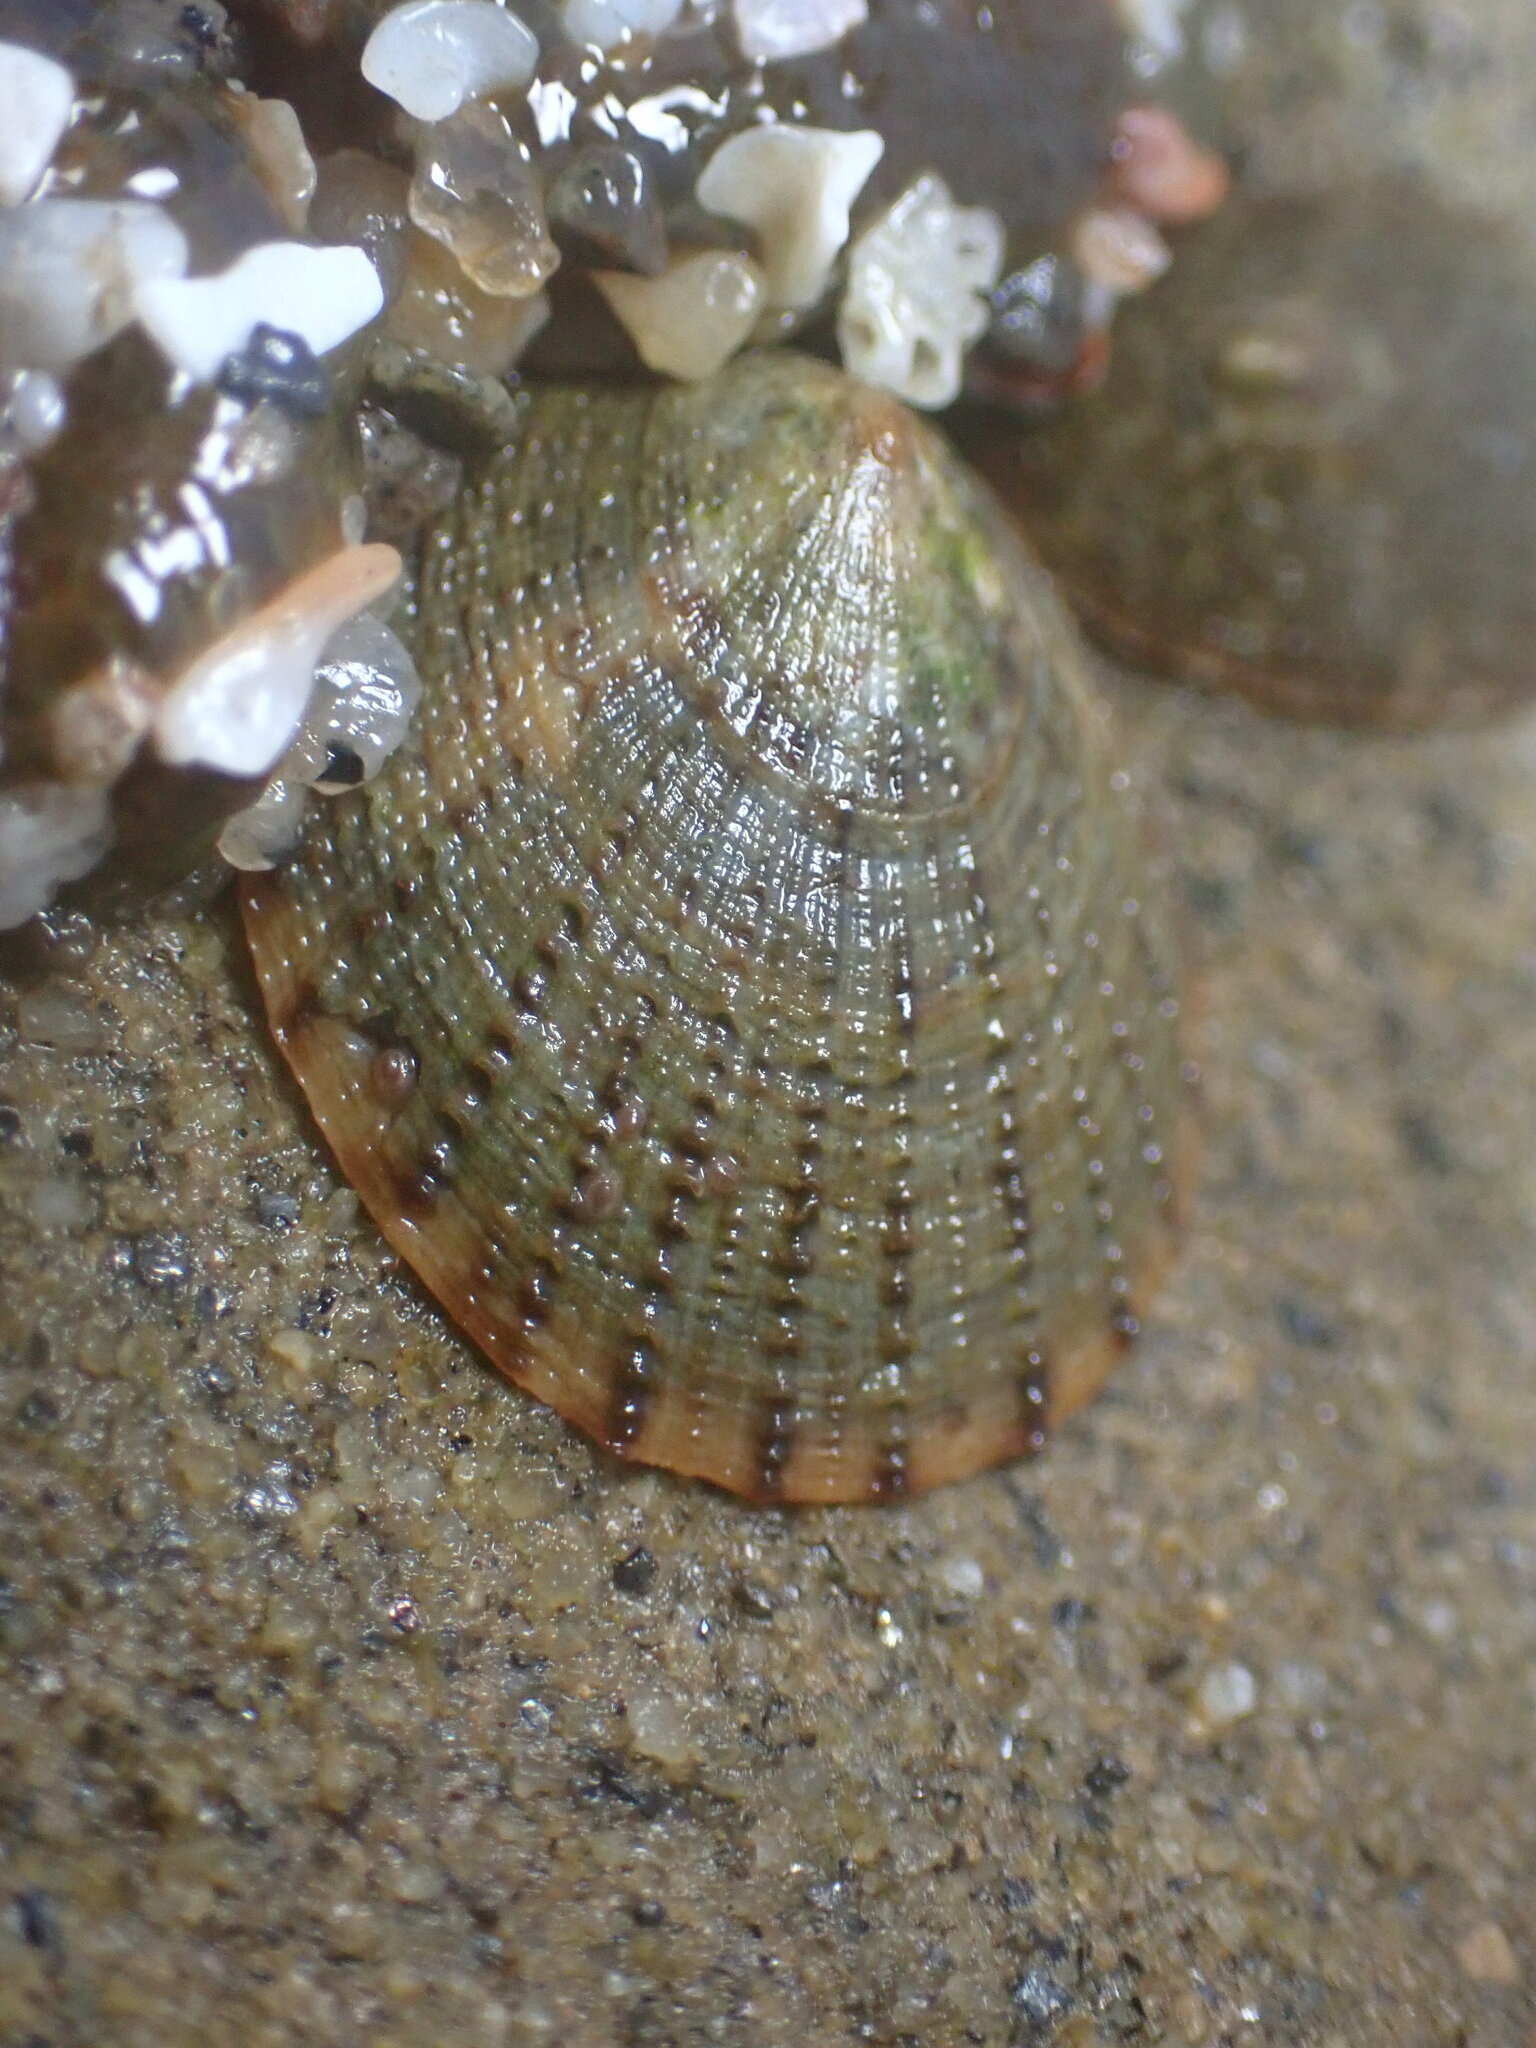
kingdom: Animalia
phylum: Mollusca
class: Gastropoda
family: Lottiidae
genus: Lottia
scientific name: Lottia limatula
